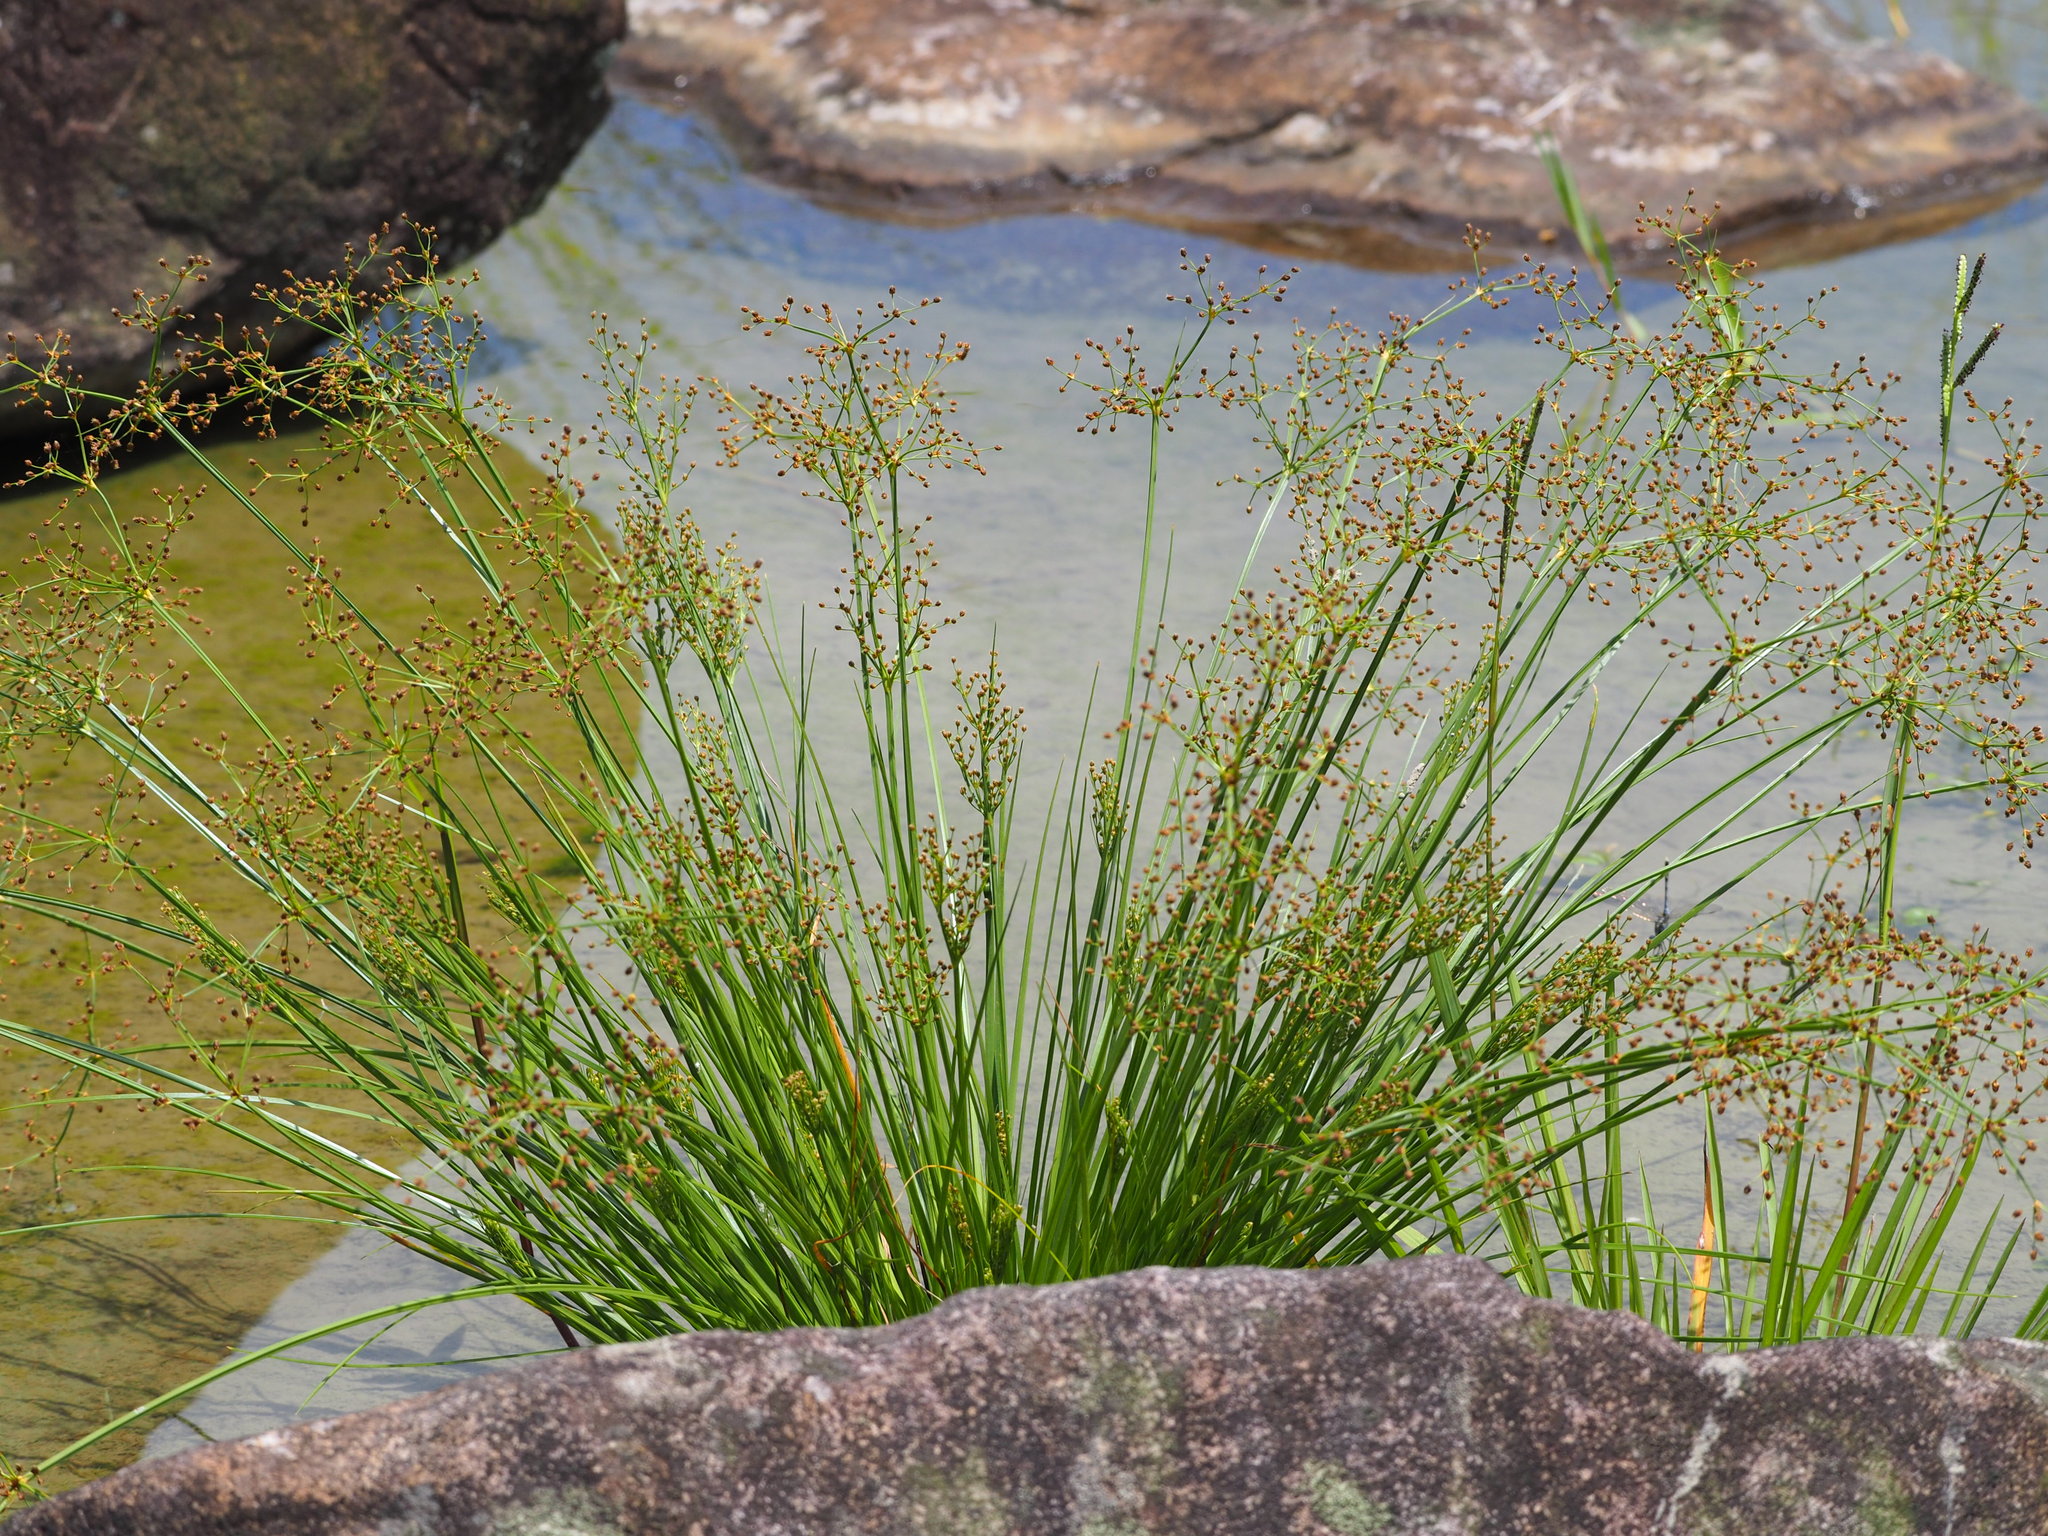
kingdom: Plantae
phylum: Tracheophyta
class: Liliopsida
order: Poales
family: Cyperaceae
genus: Fimbristylis
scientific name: Fimbristylis littoralis
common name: Fimbry
